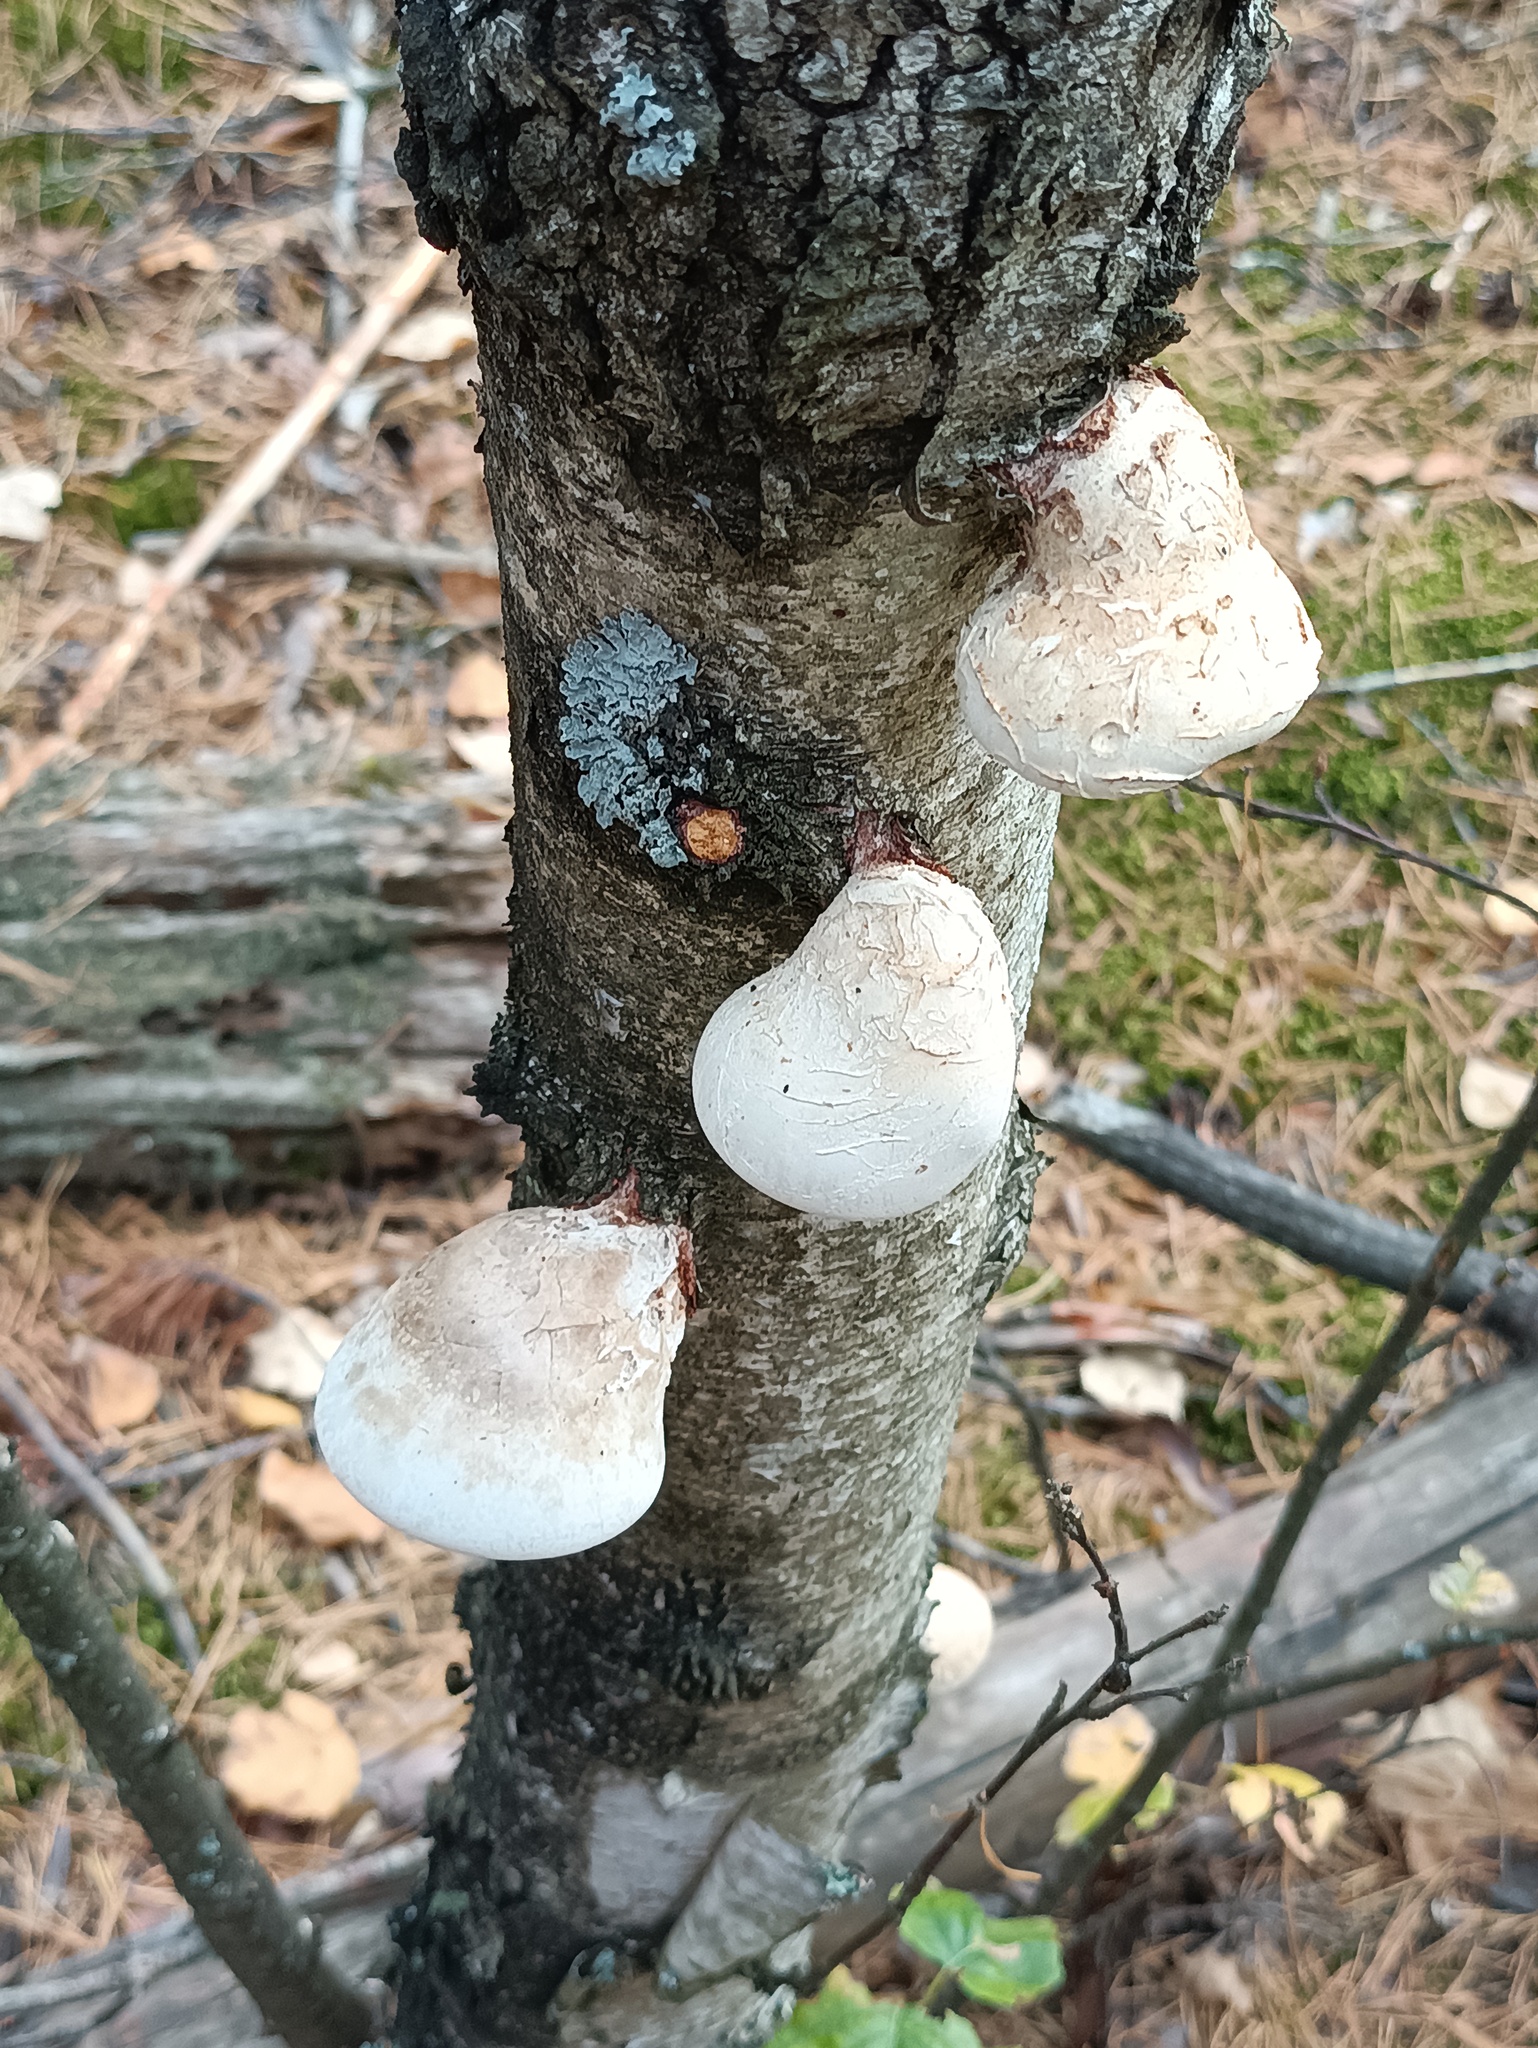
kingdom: Fungi
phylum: Basidiomycota
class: Agaricomycetes
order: Polyporales
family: Fomitopsidaceae
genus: Fomitopsis
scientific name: Fomitopsis betulina
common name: Birch polypore
